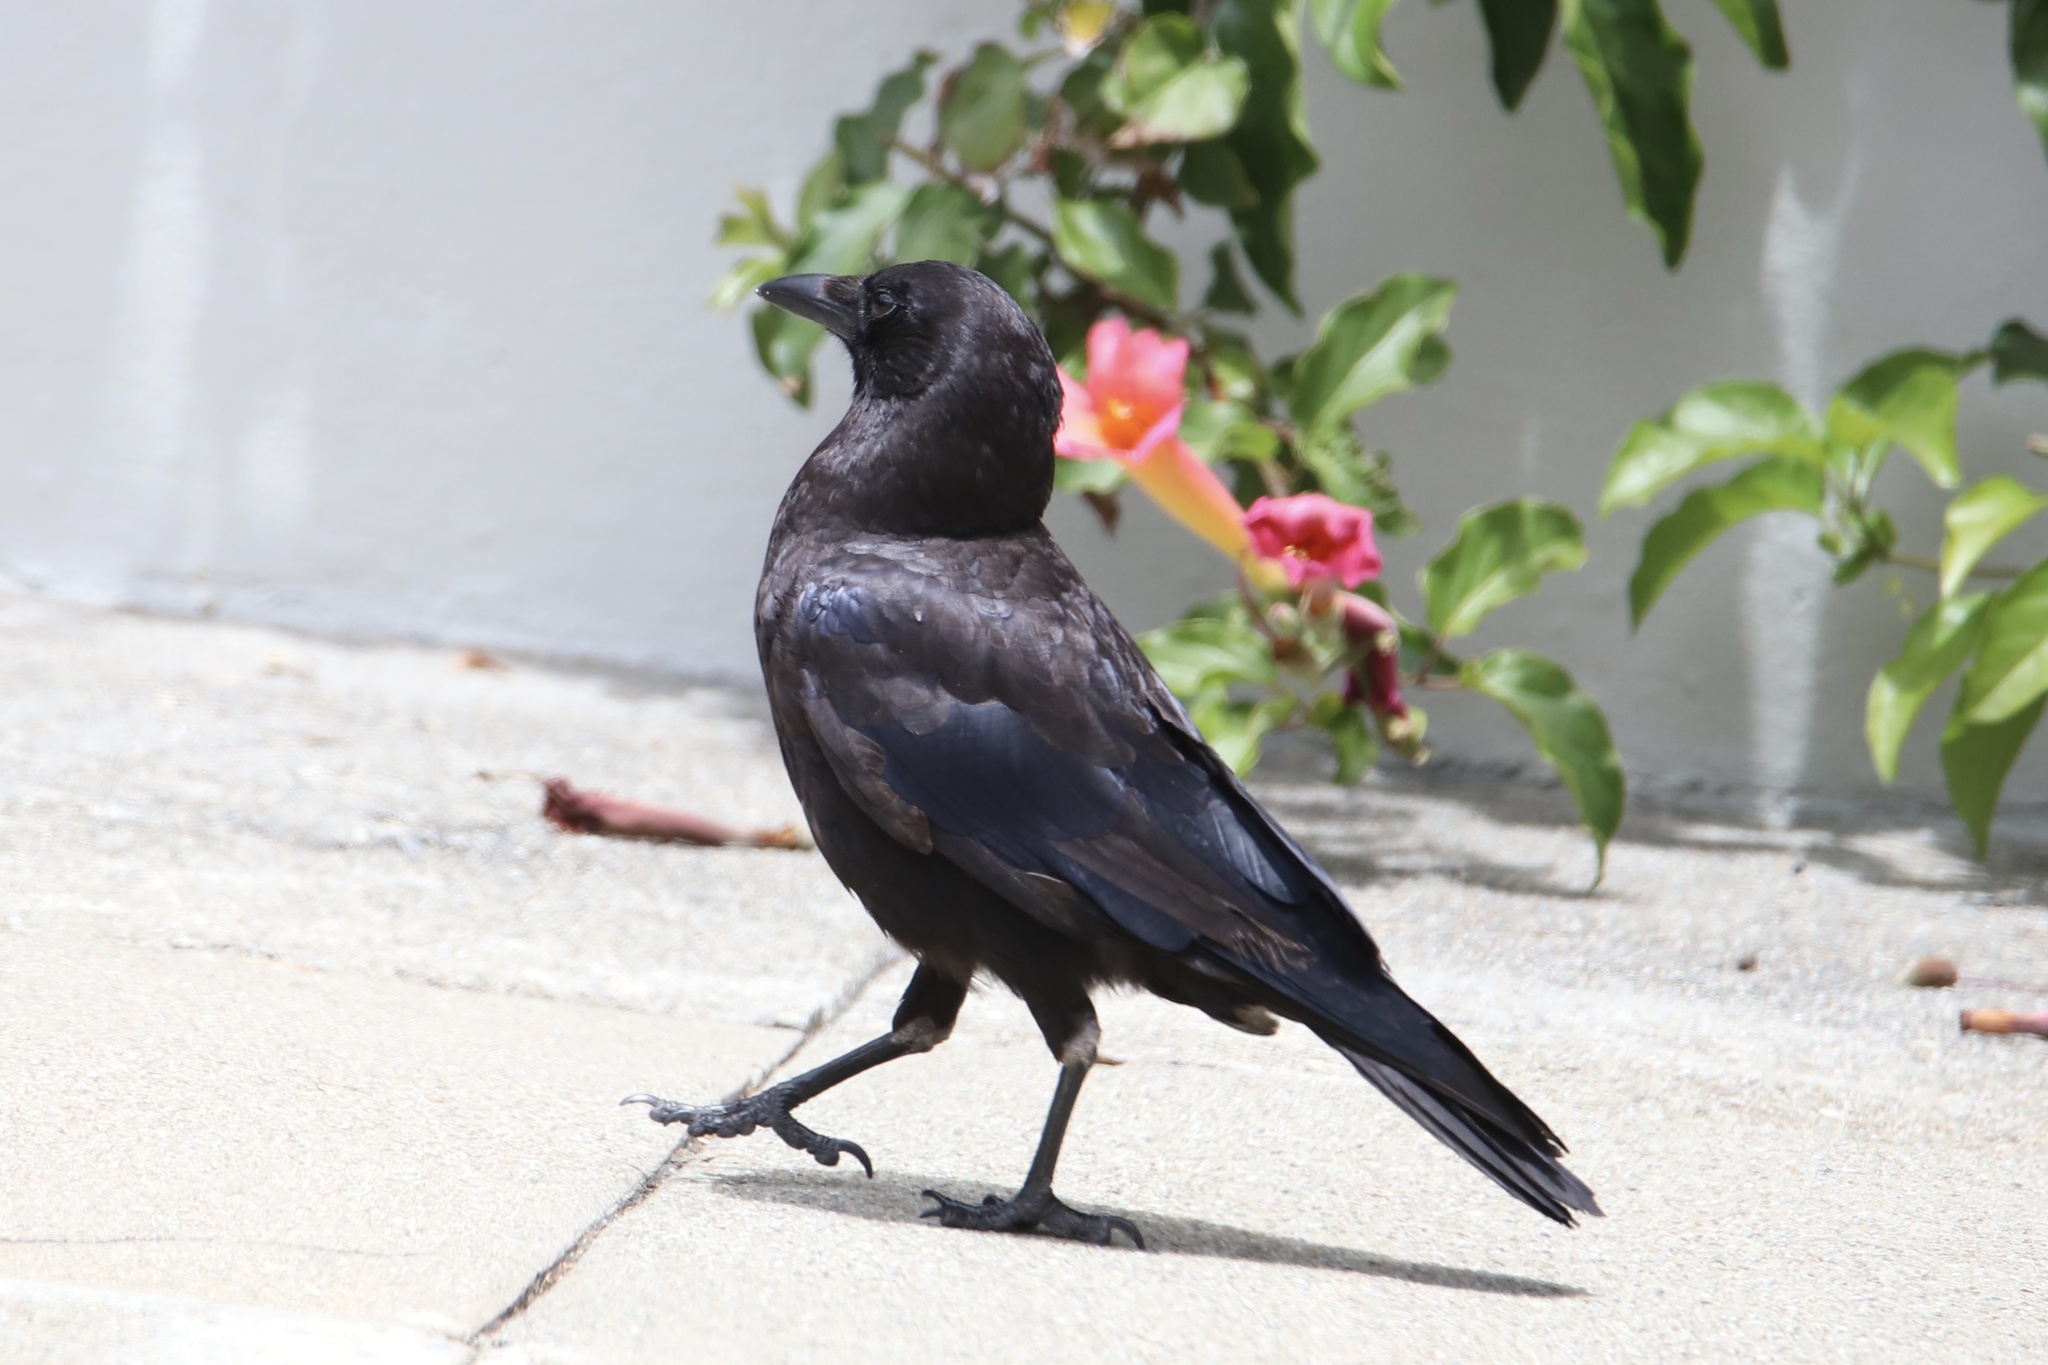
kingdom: Animalia
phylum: Chordata
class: Aves
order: Passeriformes
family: Corvidae
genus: Corvus
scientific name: Corvus brachyrhynchos
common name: American crow
